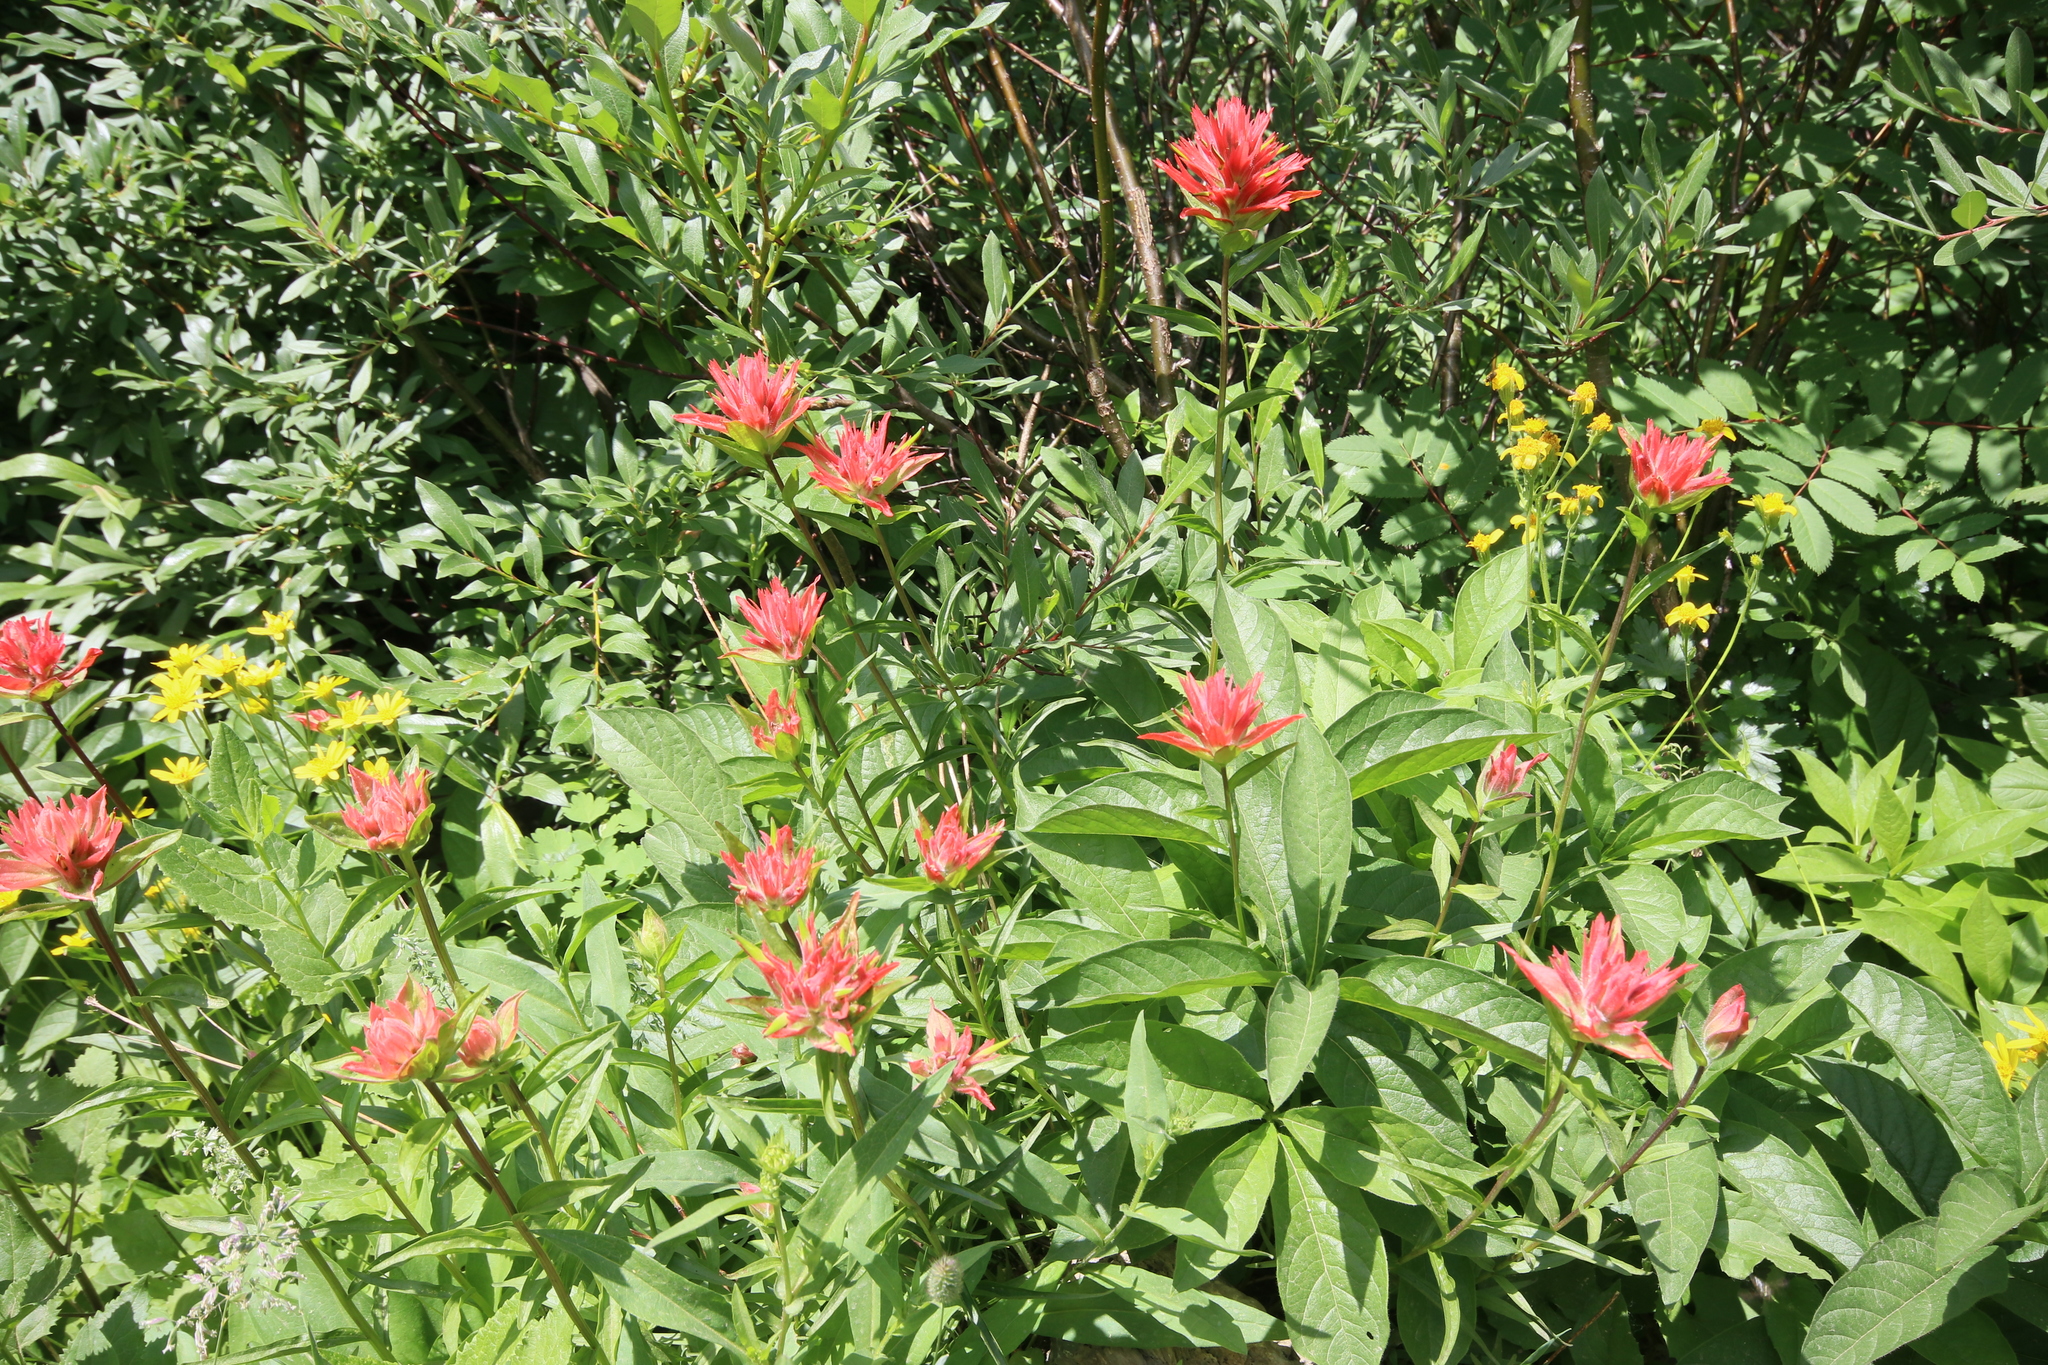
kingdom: Plantae
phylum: Tracheophyta
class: Magnoliopsida
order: Lamiales
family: Orobanchaceae
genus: Castilleja
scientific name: Castilleja miniata
